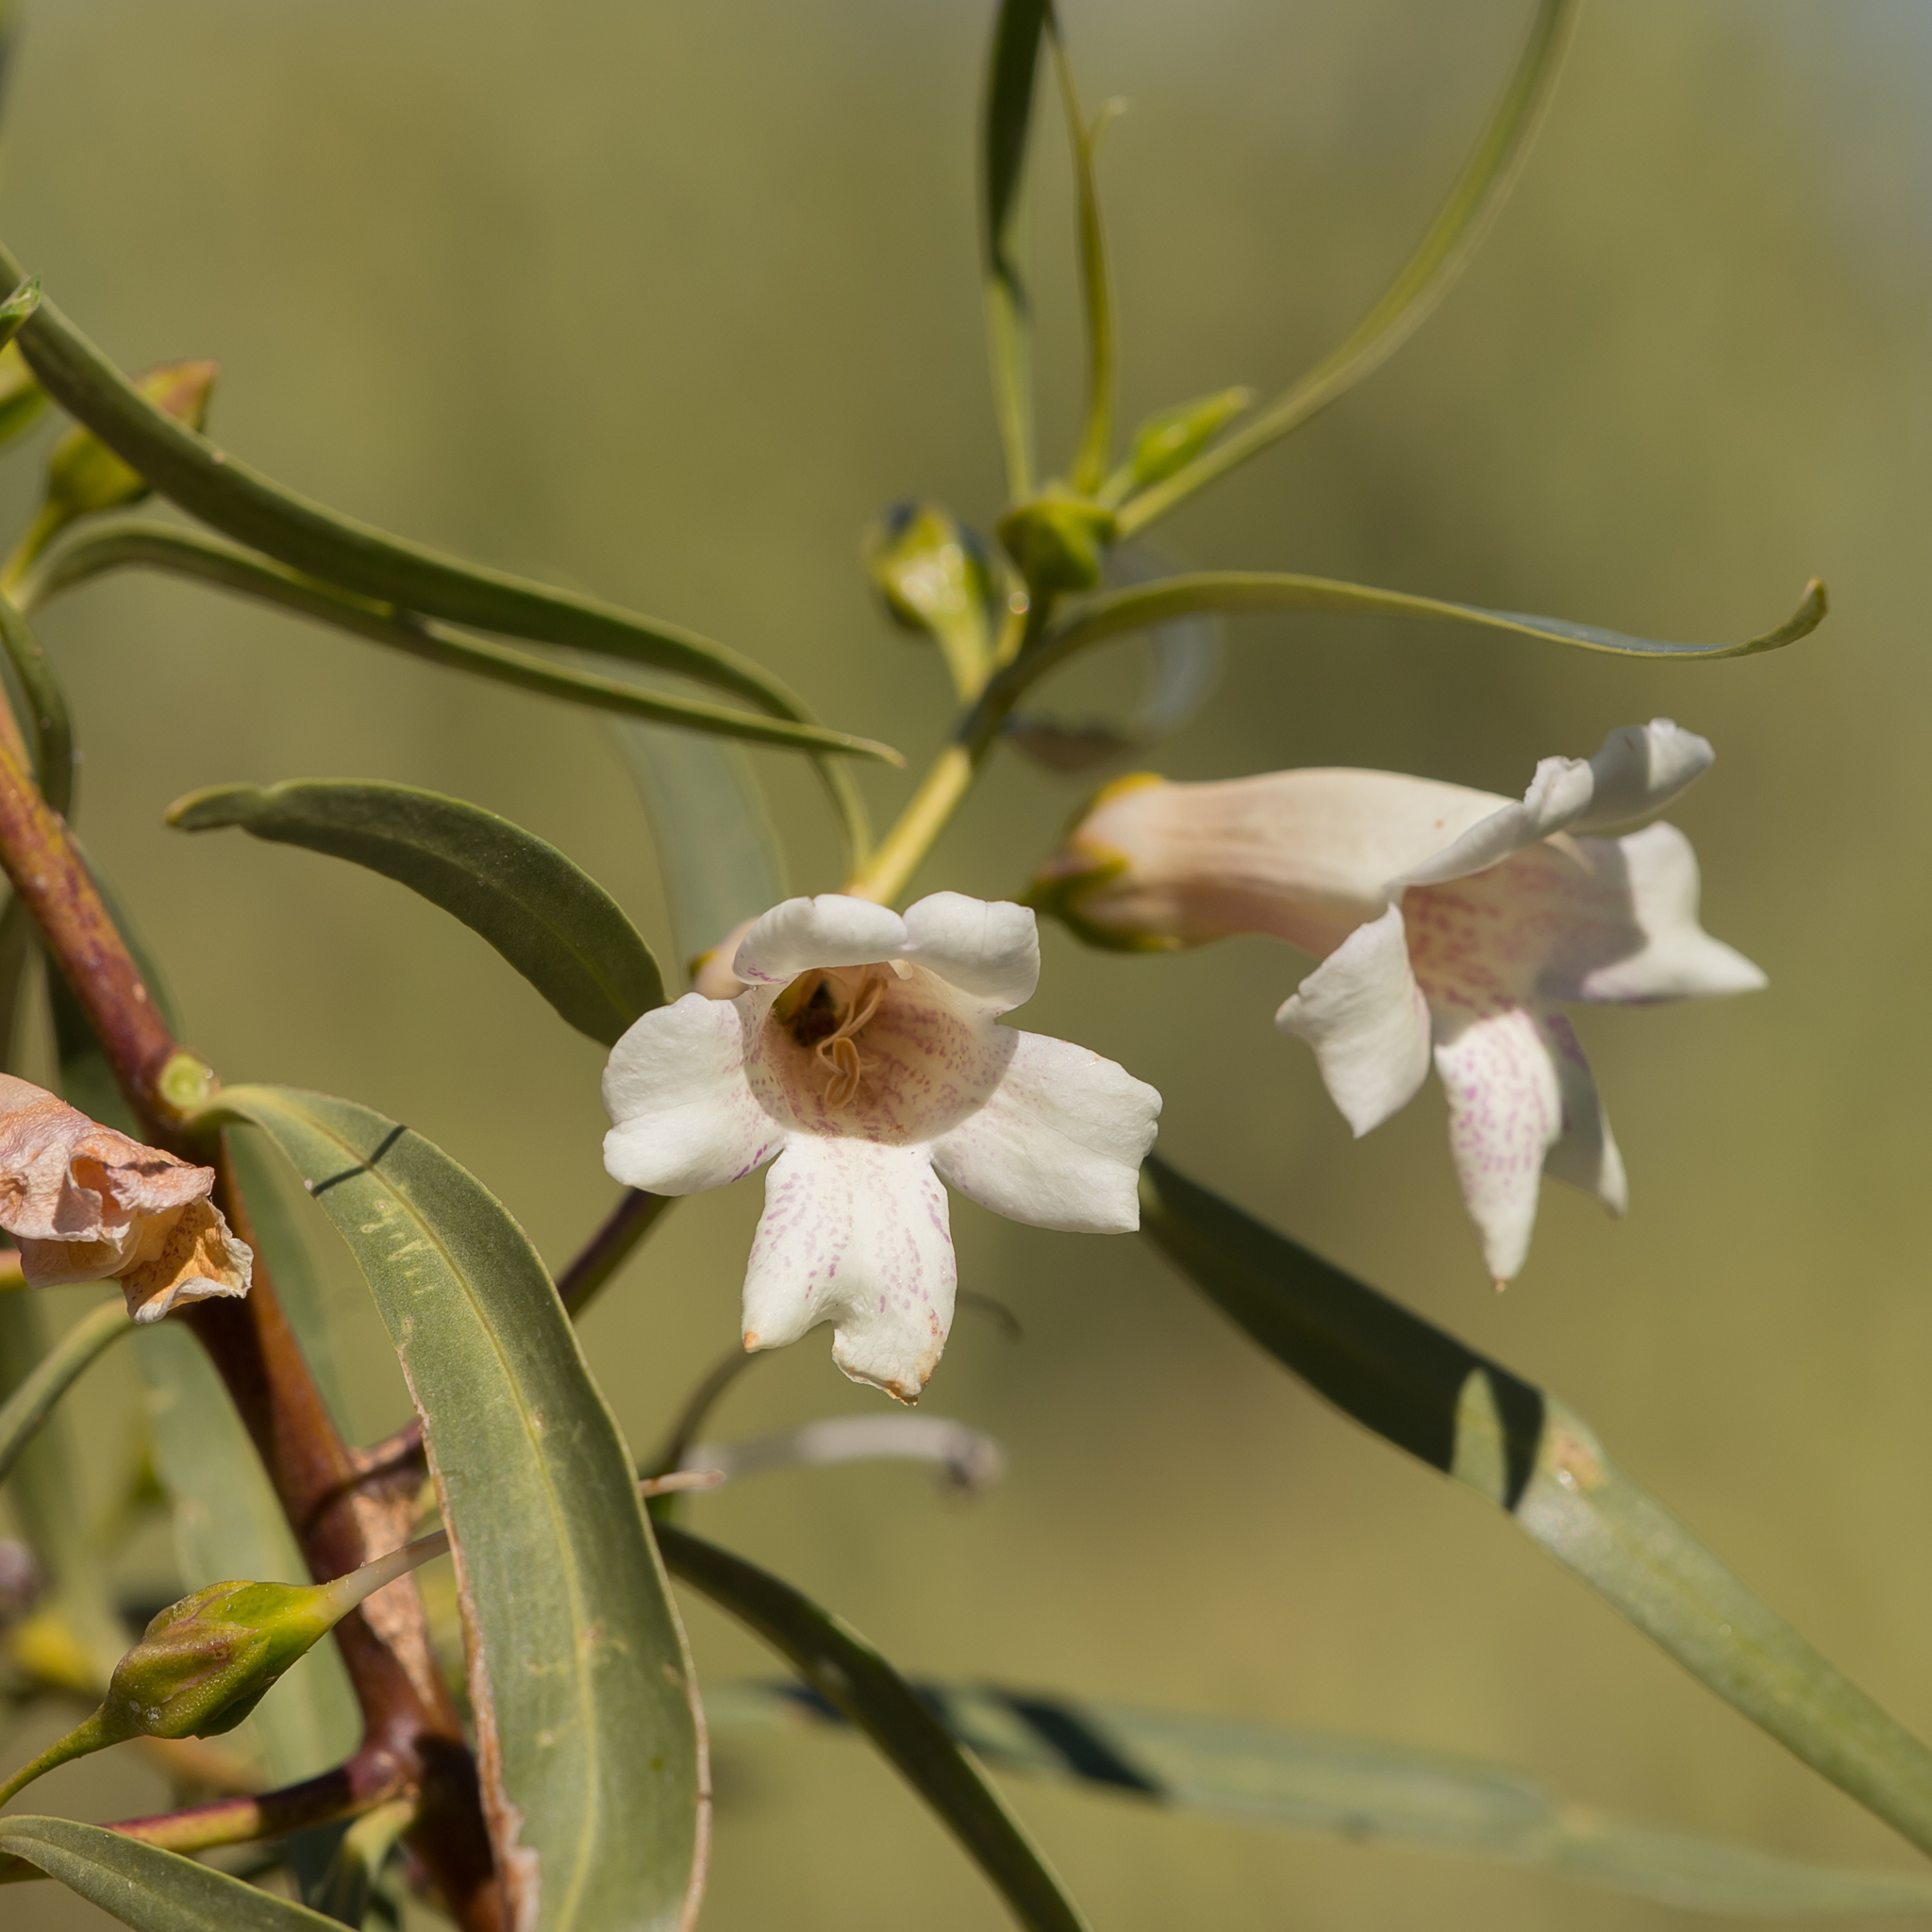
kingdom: Plantae
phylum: Tracheophyta
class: Magnoliopsida
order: Lamiales
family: Scrophulariaceae
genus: Eremophila
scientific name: Eremophila bignoniiflora
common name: Bignonia emu-bush
